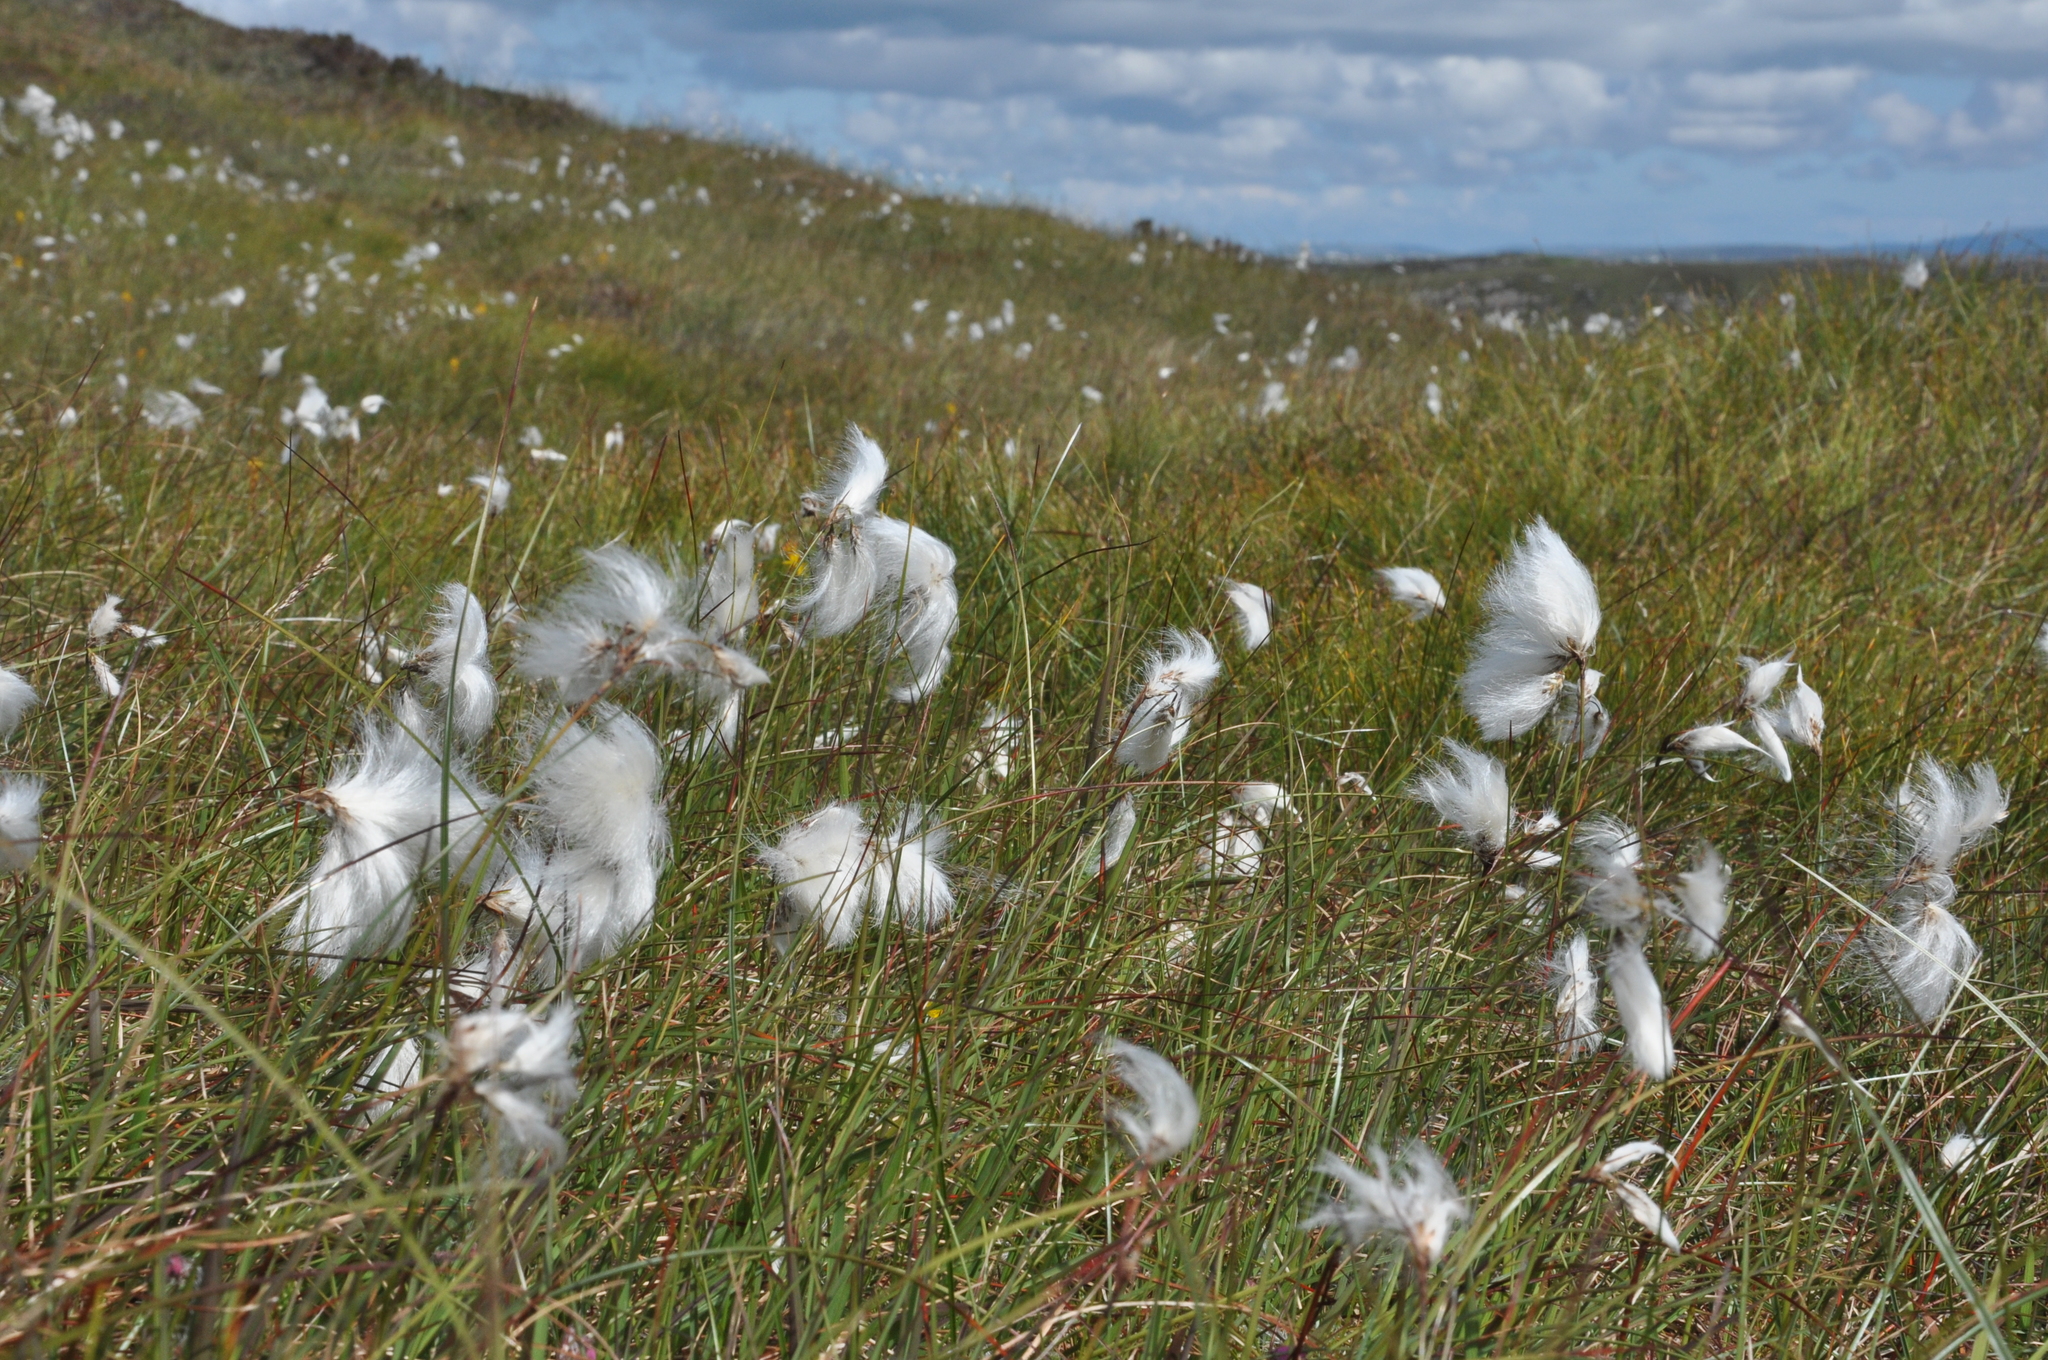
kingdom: Plantae
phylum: Tracheophyta
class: Liliopsida
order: Poales
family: Cyperaceae
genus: Eriophorum
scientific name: Eriophorum angustifolium
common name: Common cottongrass
